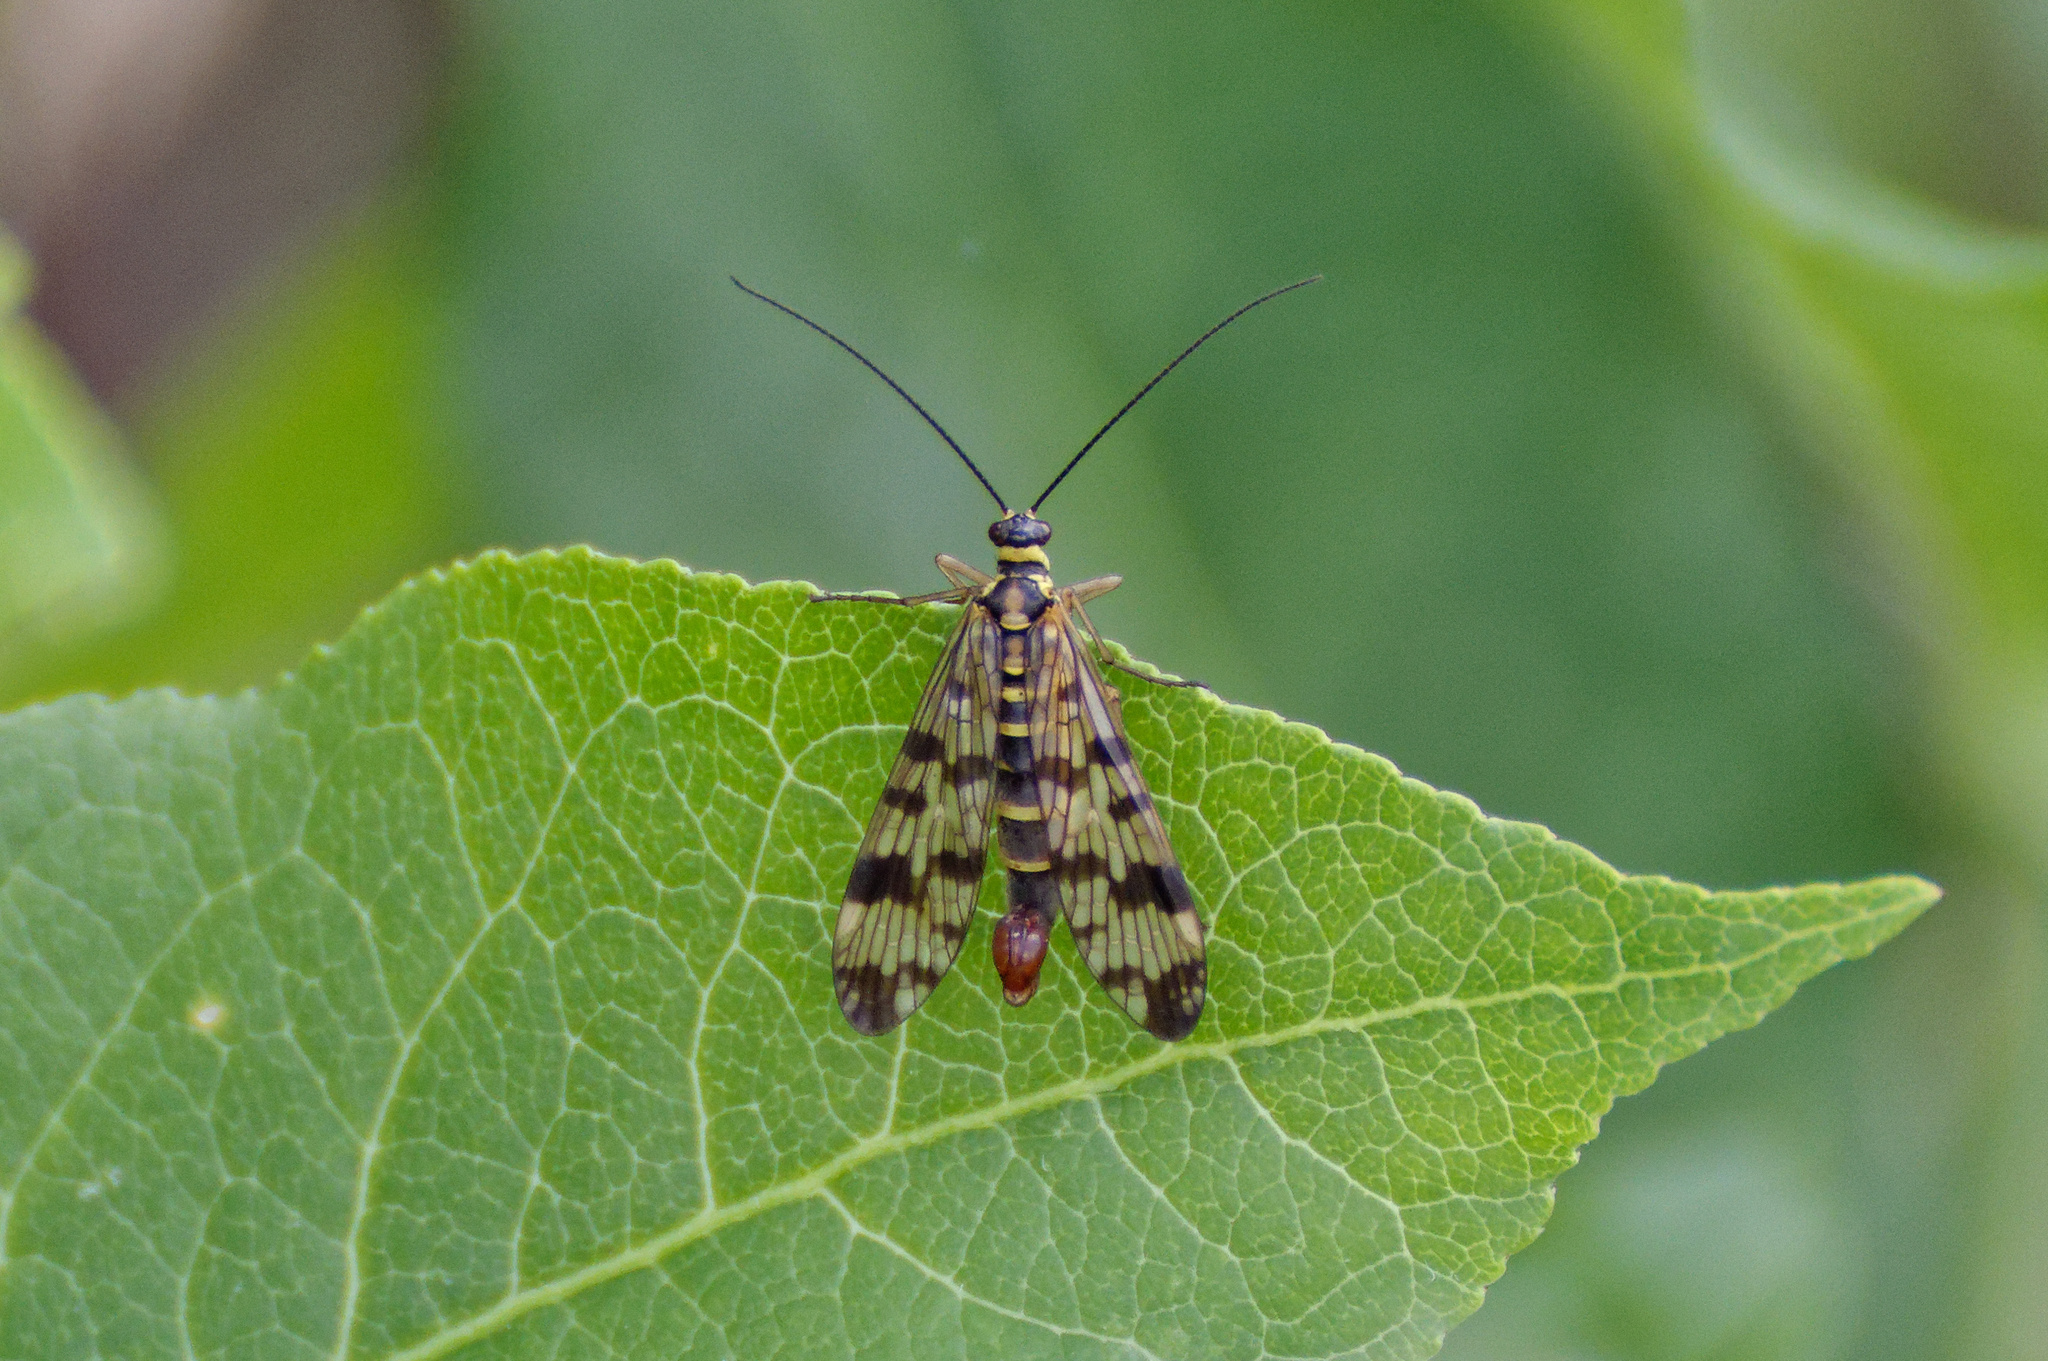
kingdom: Animalia
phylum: Arthropoda
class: Insecta
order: Mecoptera
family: Panorpidae
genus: Panorpa
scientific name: Panorpa communis
